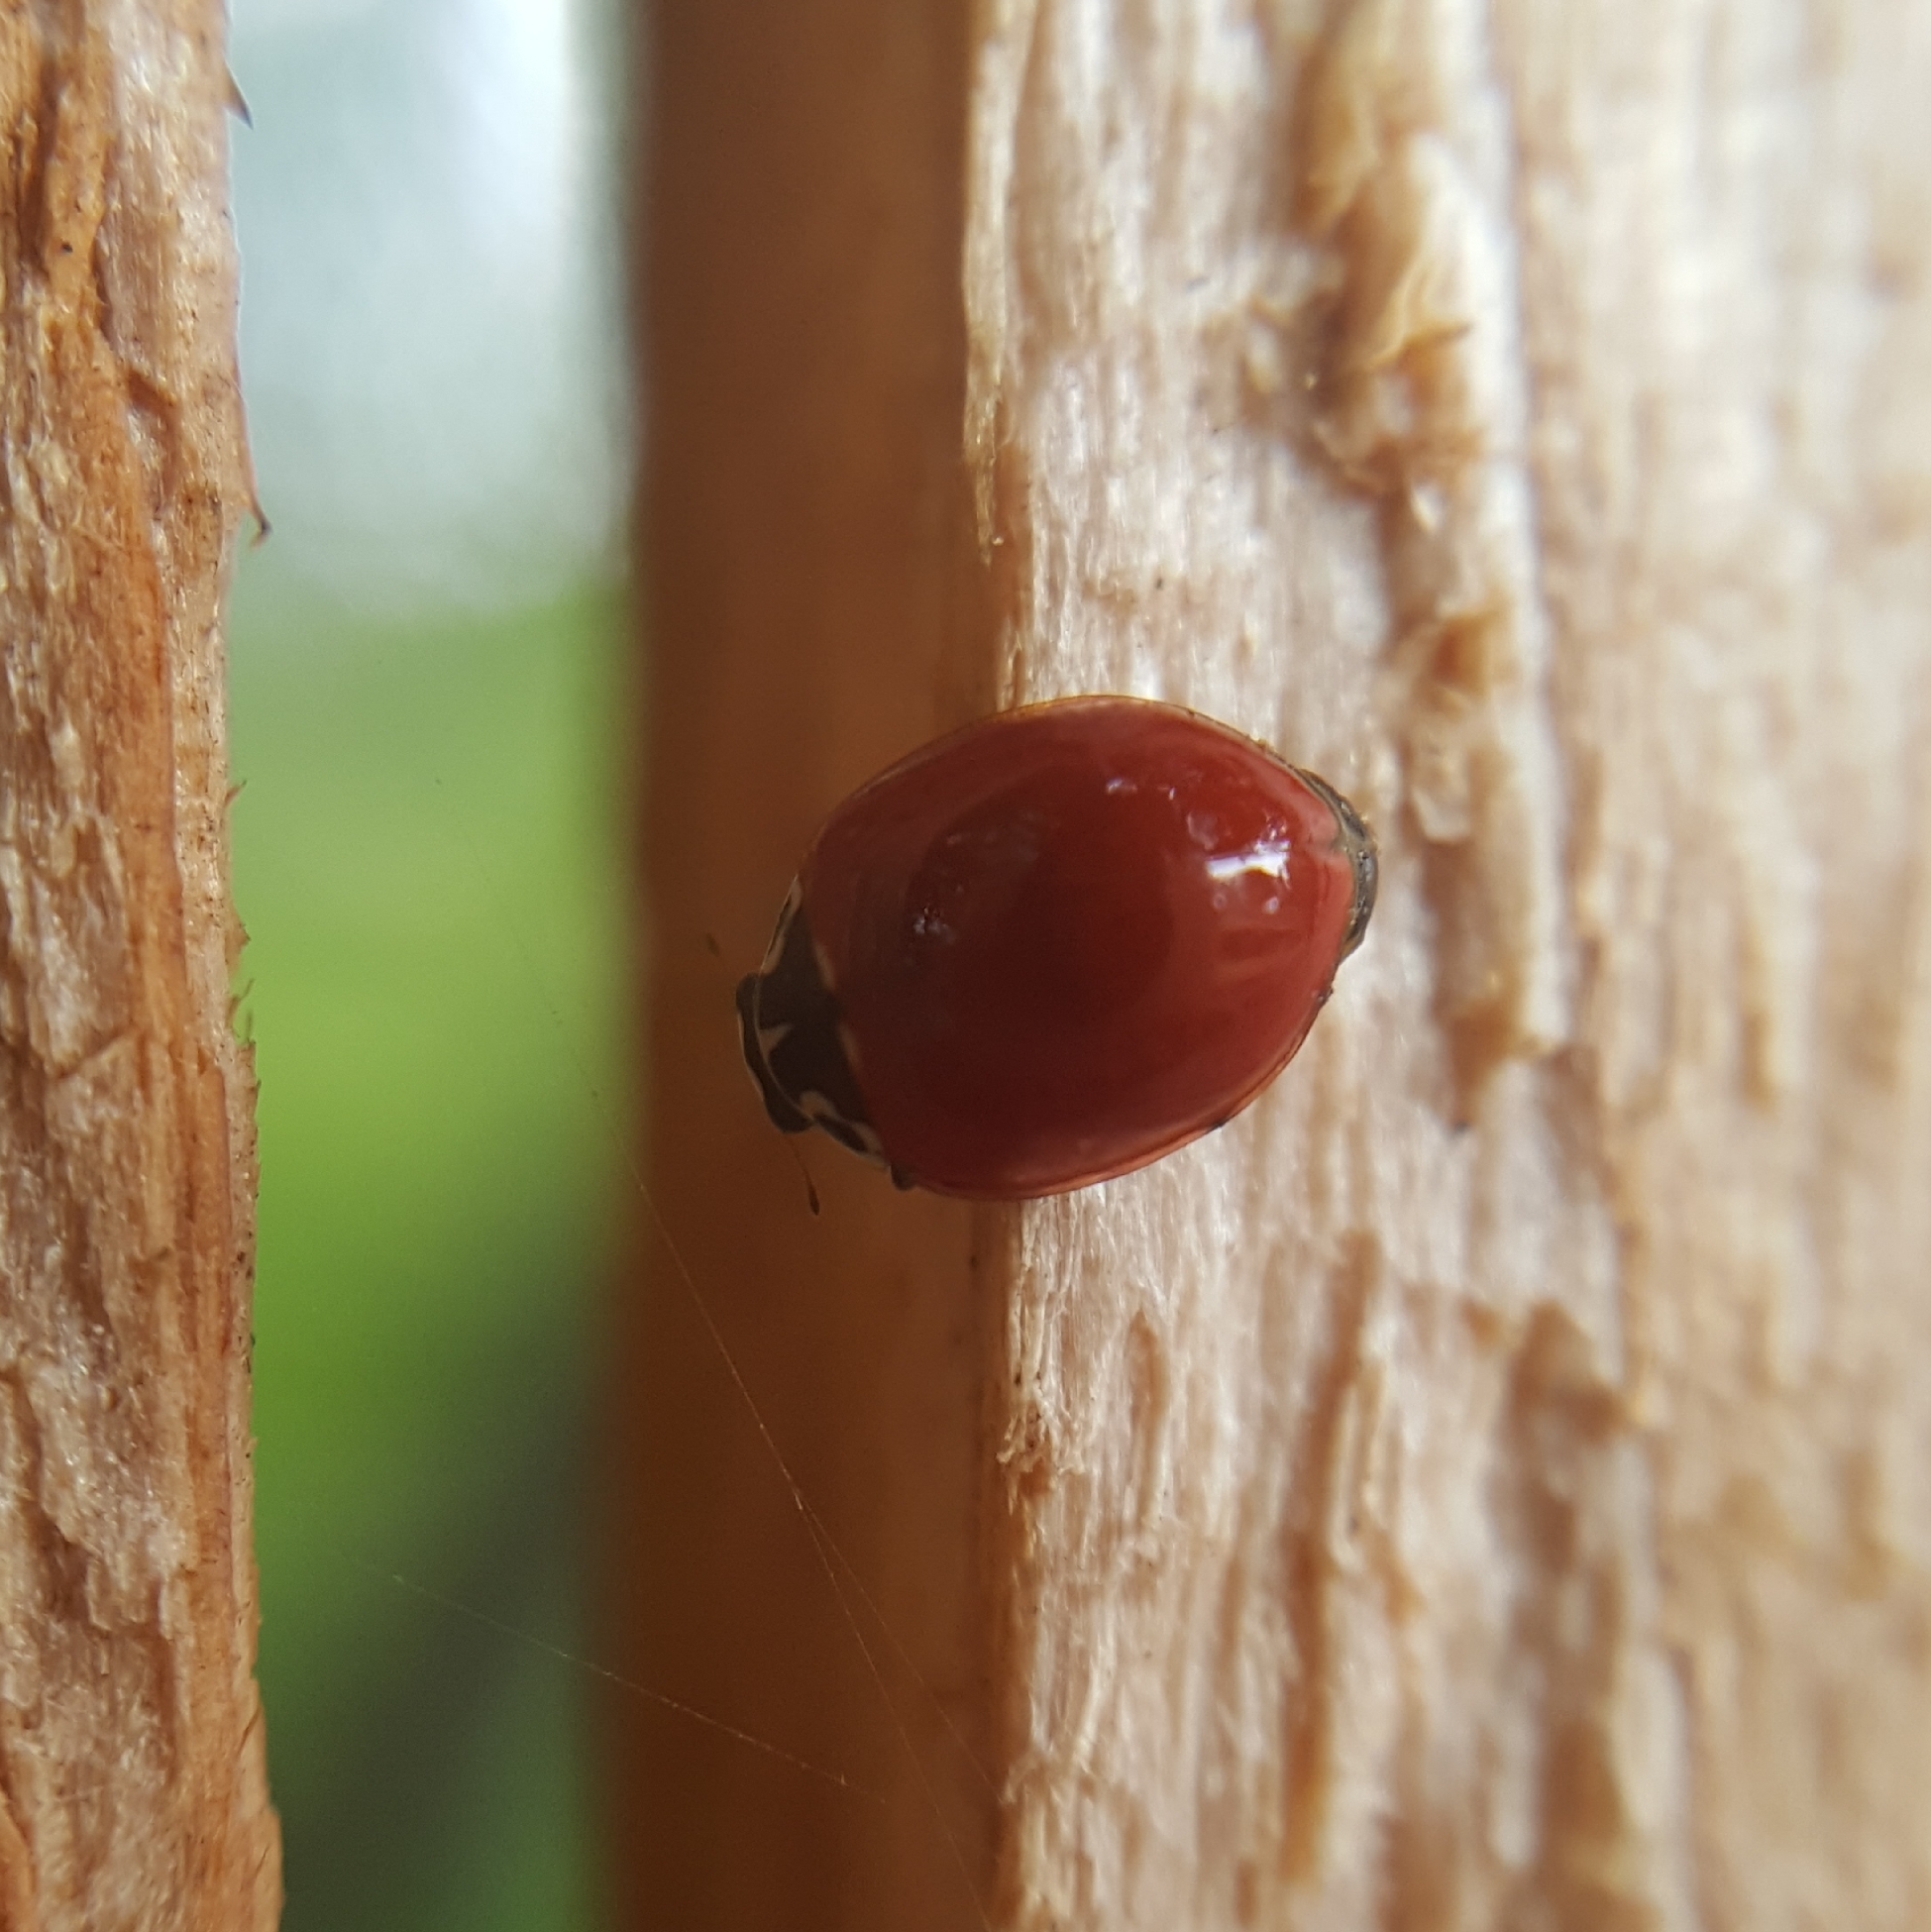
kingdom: Animalia
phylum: Arthropoda
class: Insecta
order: Coleoptera
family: Coccinellidae
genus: Cycloneda
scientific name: Cycloneda polita
